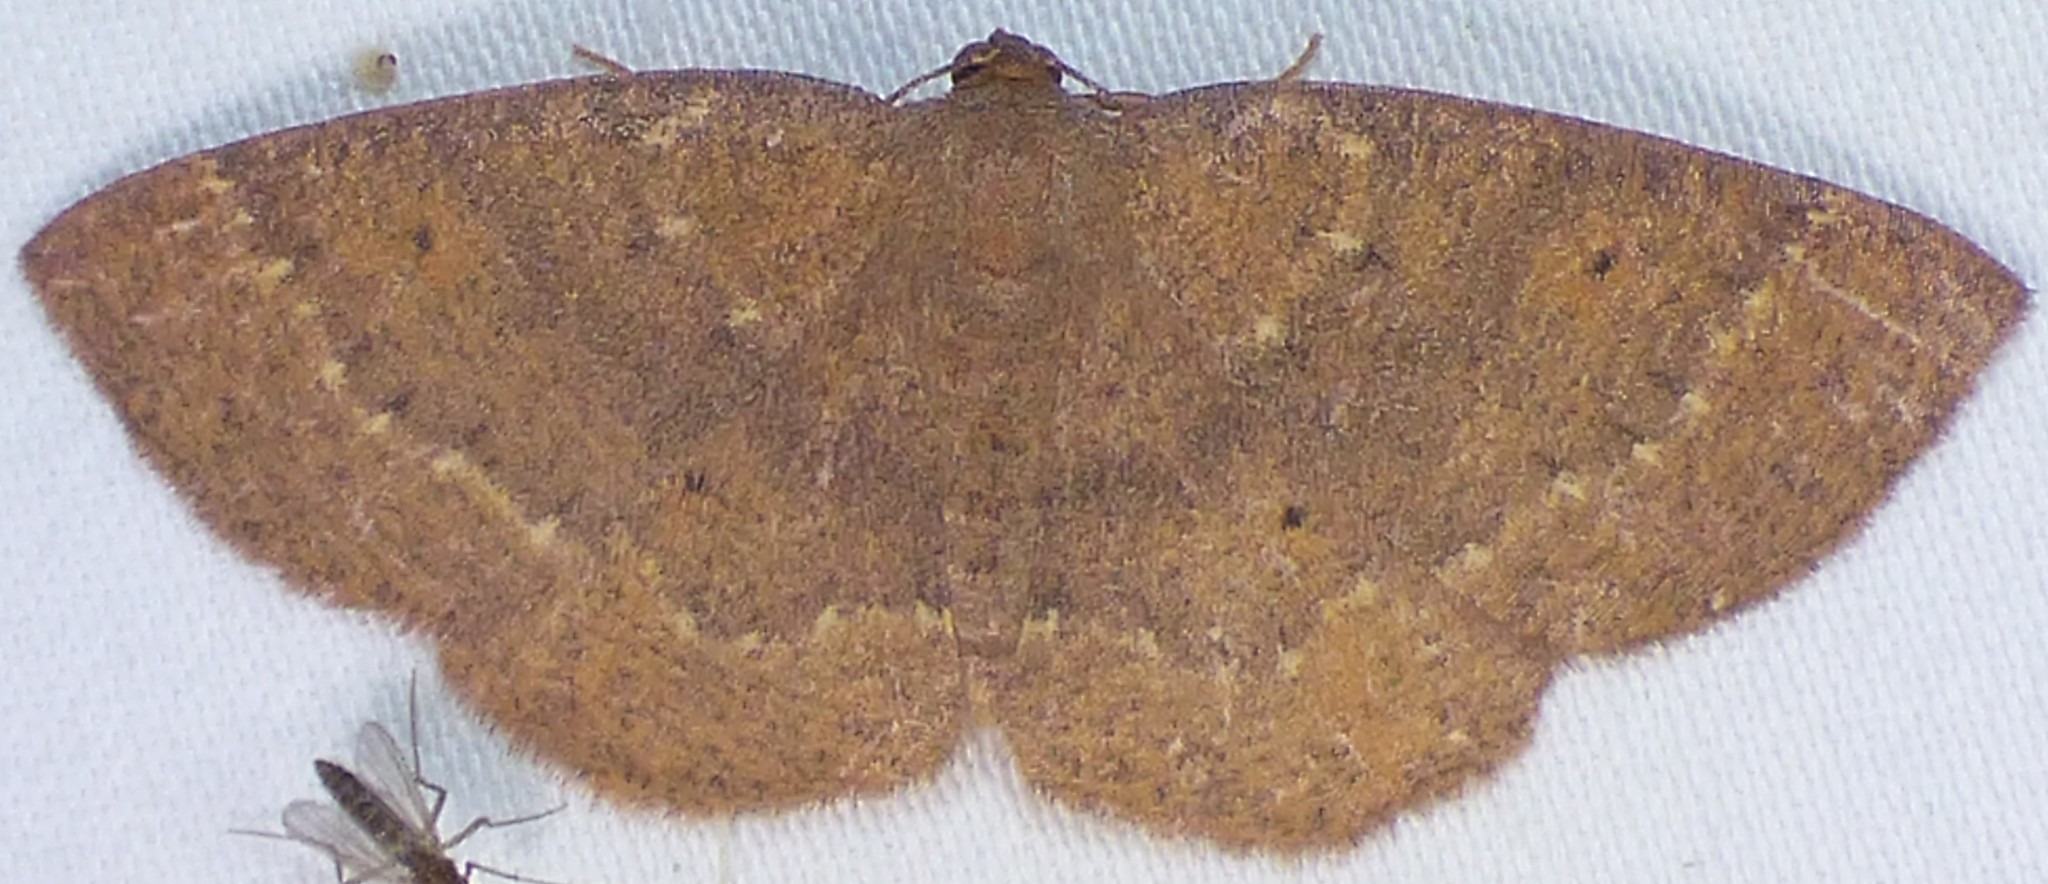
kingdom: Animalia
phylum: Arthropoda
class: Insecta
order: Lepidoptera
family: Geometridae
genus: Ilexia
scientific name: Ilexia intractata
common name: Black-dotted ruddy moth
